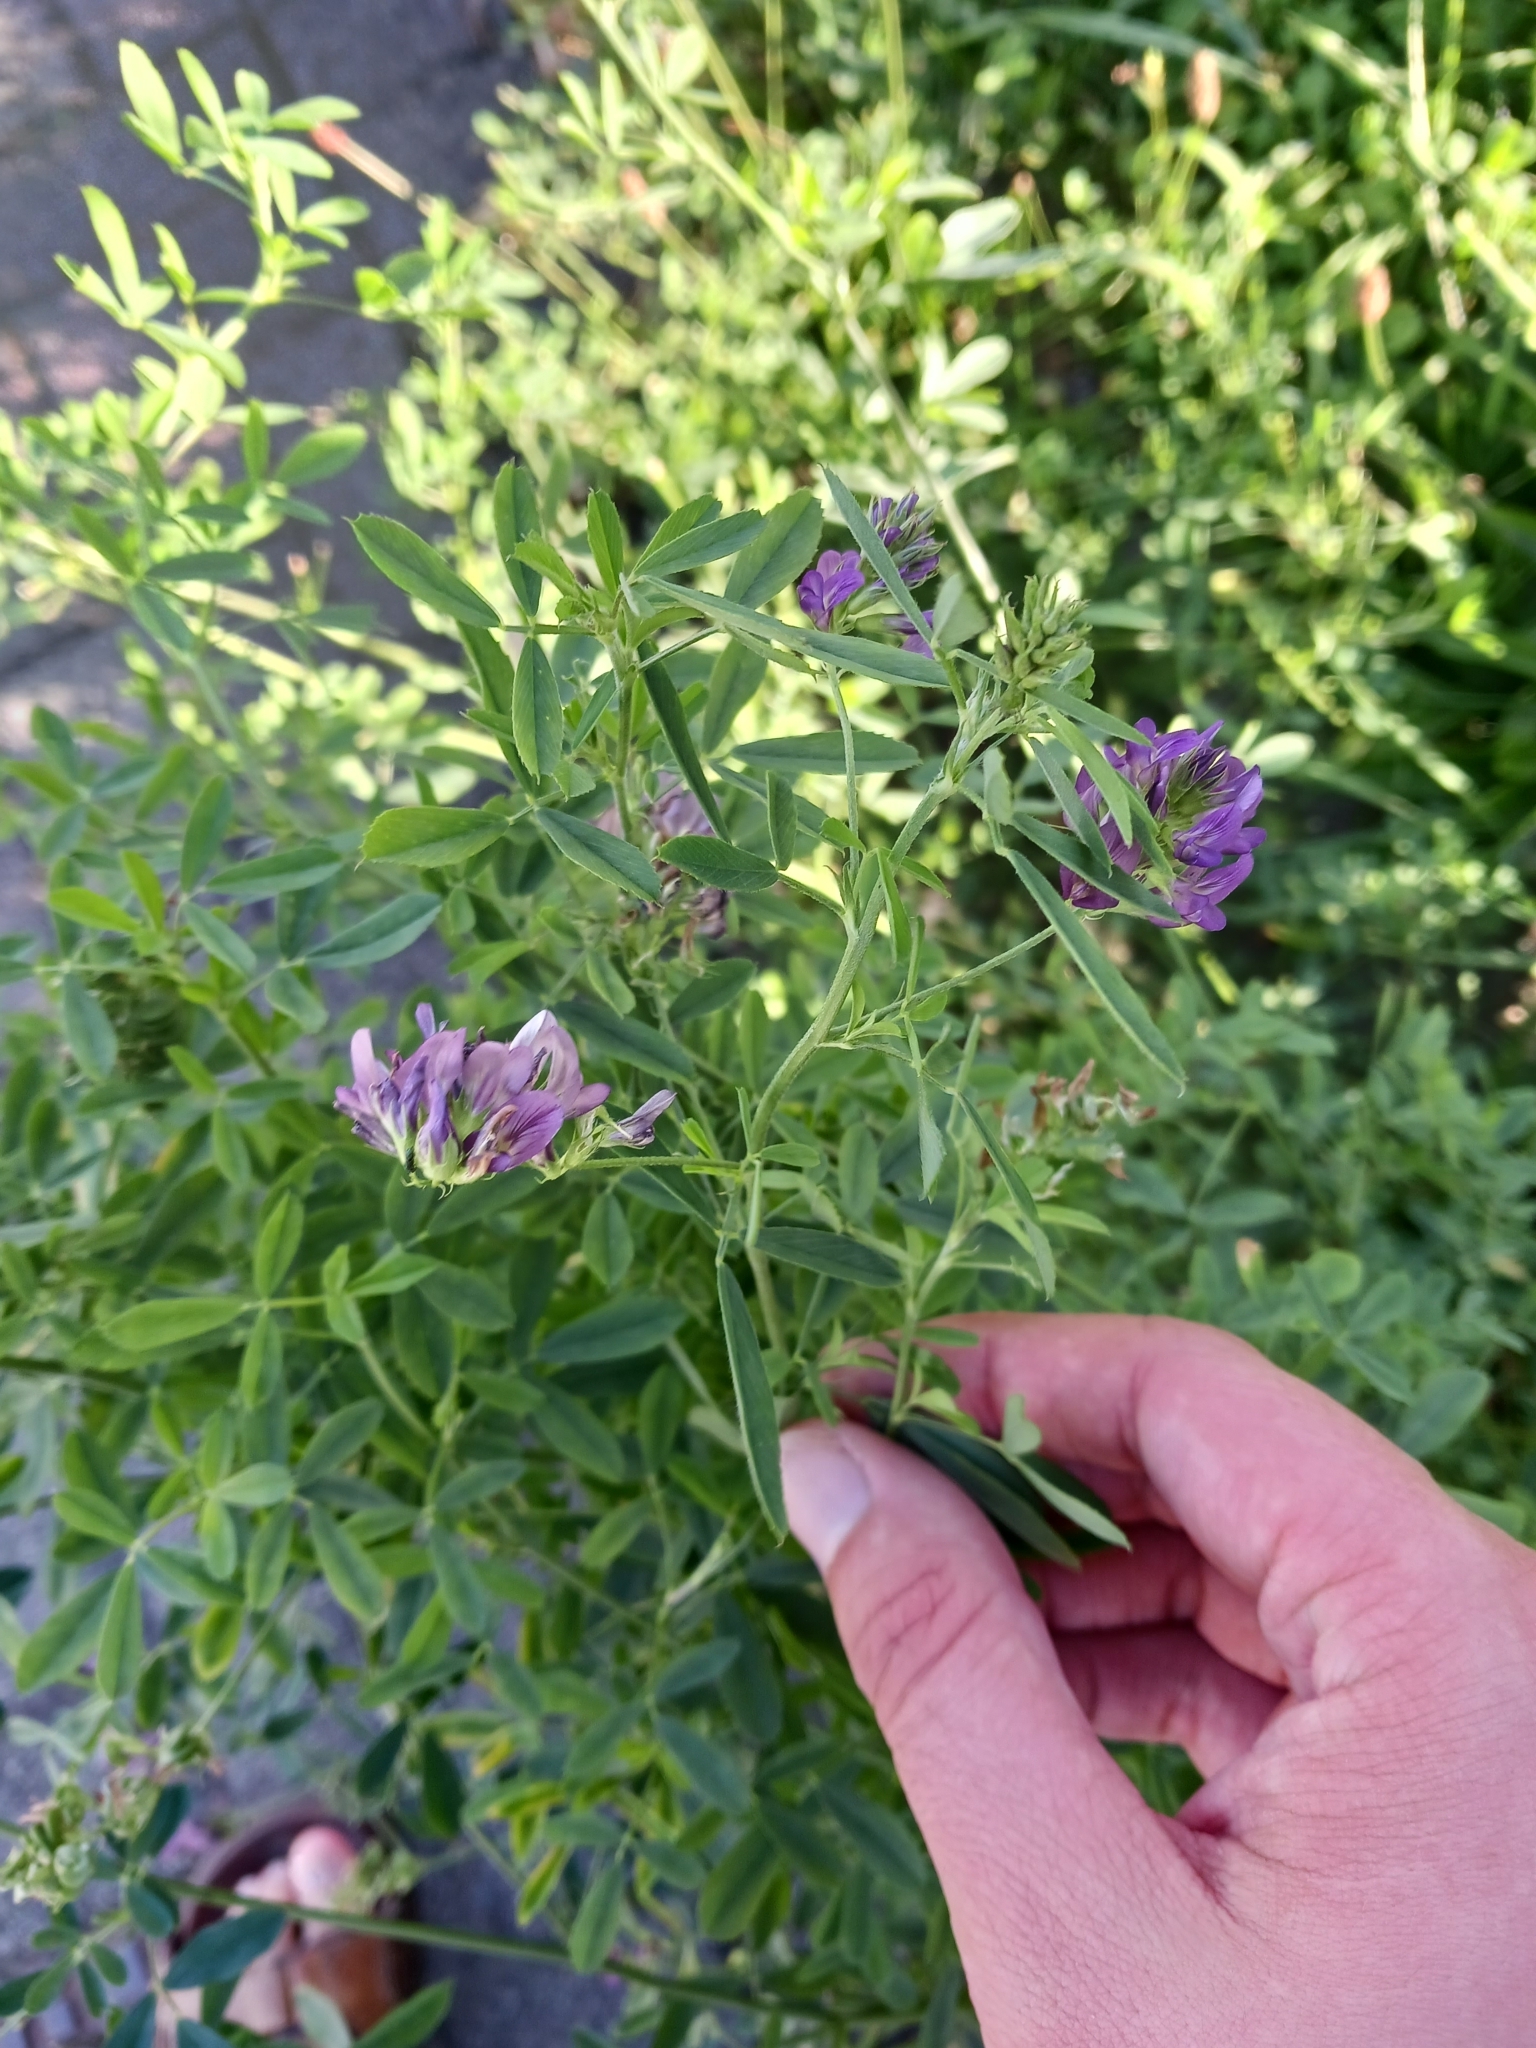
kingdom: Plantae
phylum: Tracheophyta
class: Magnoliopsida
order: Fabales
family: Fabaceae
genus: Medicago
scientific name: Medicago sativa
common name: Alfalfa
